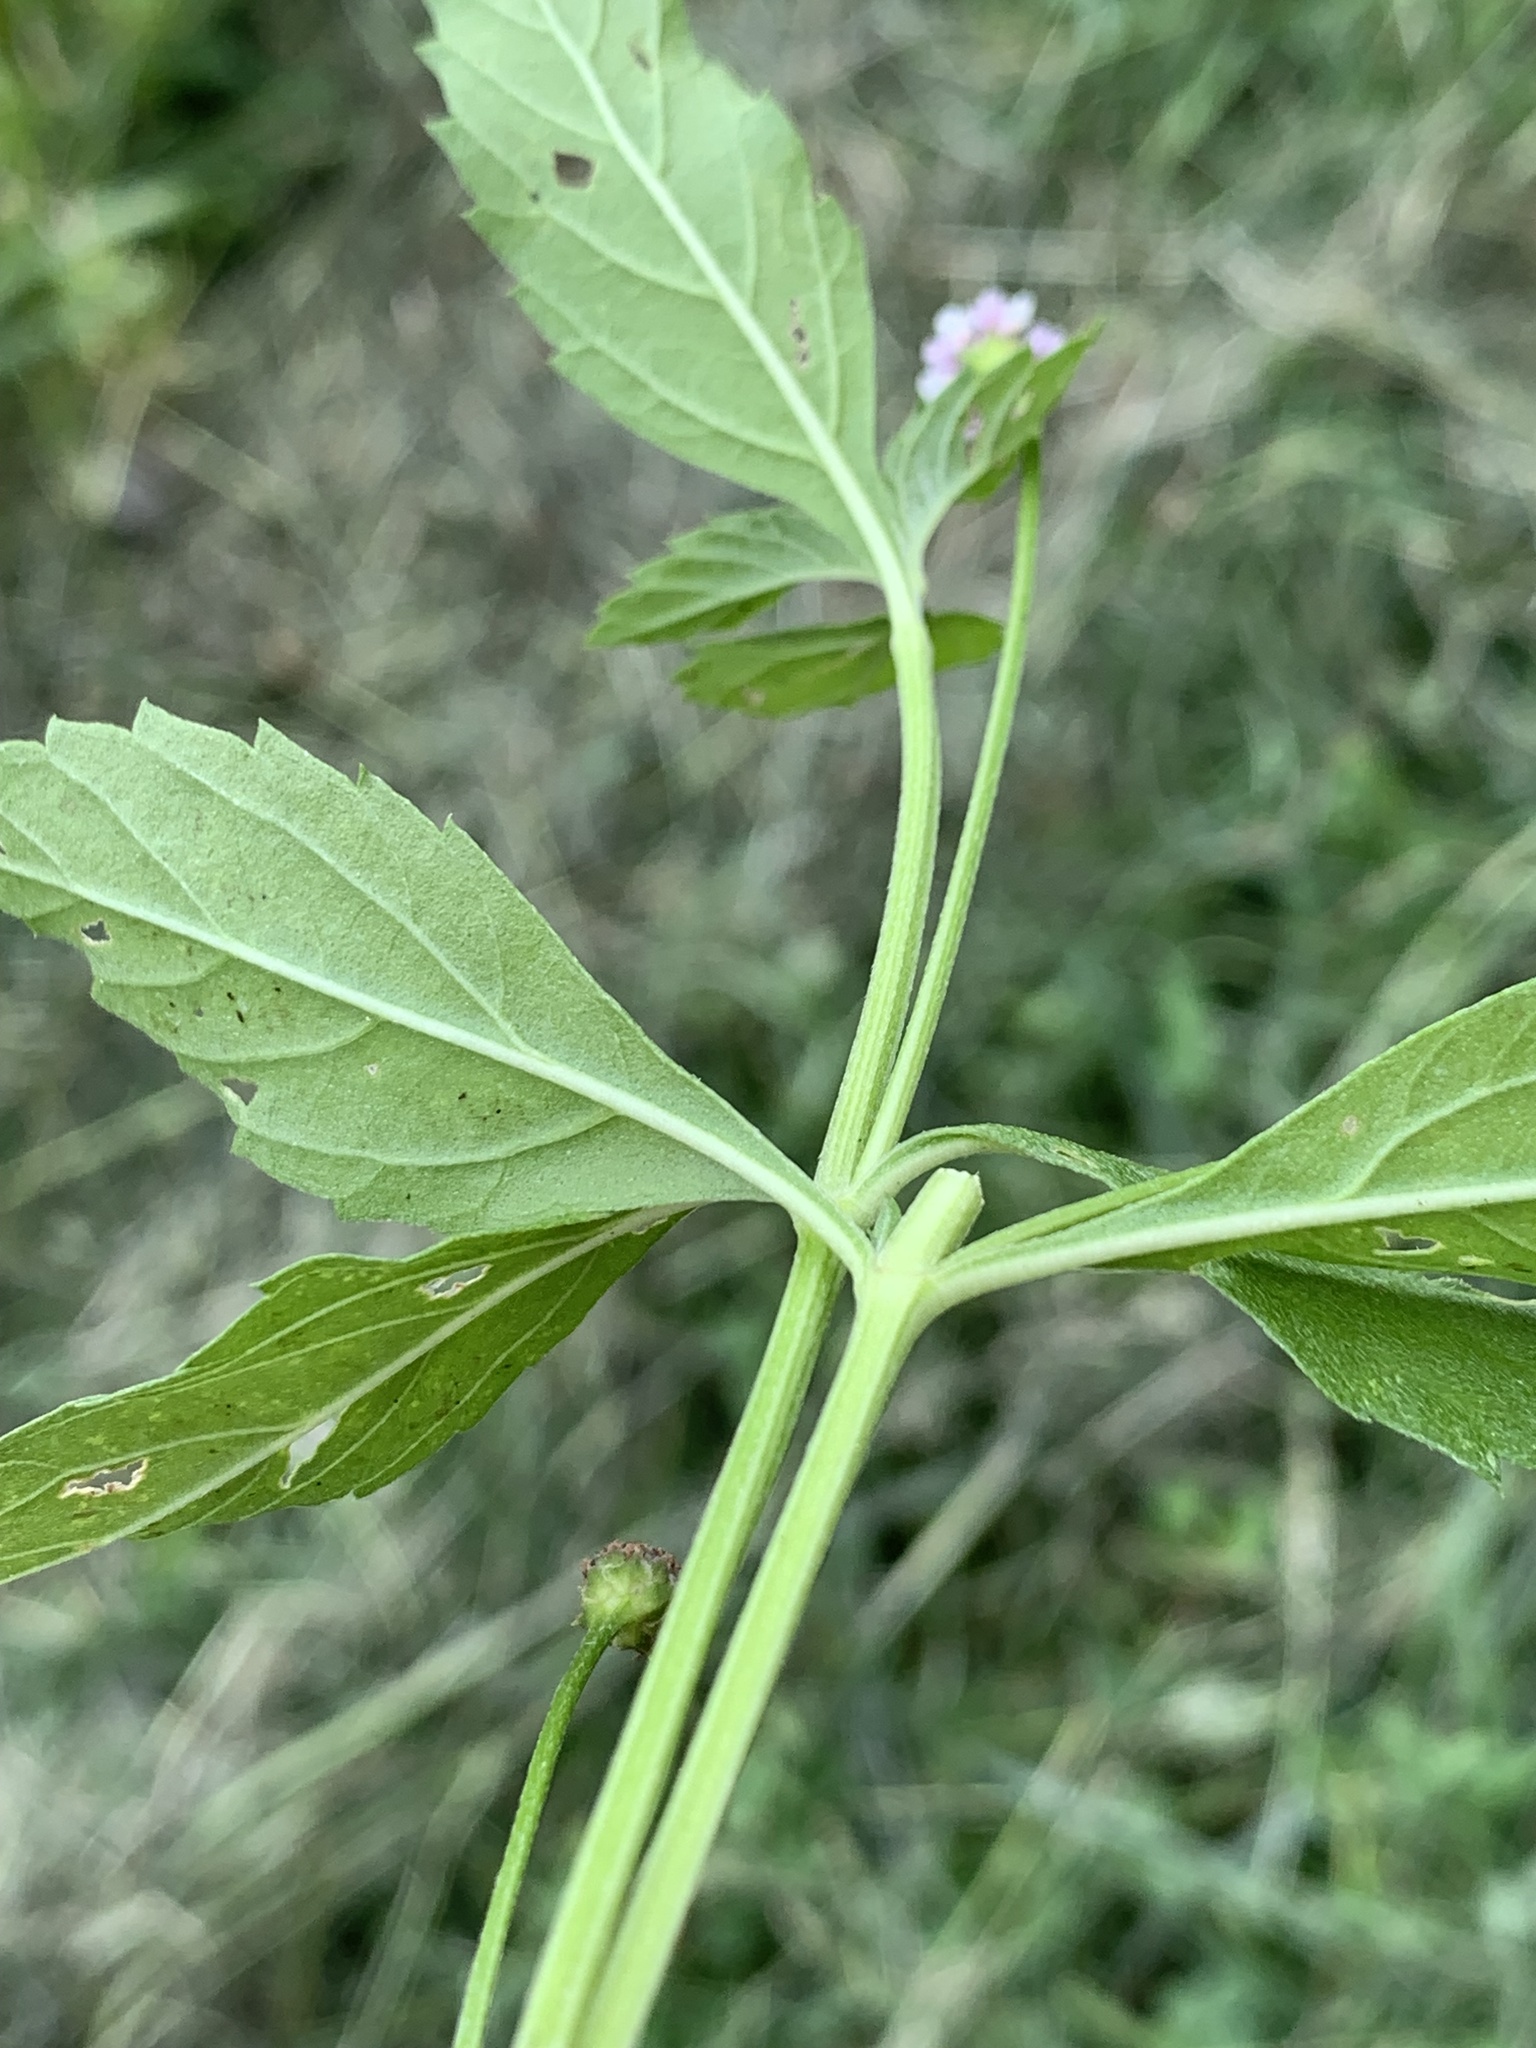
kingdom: Plantae
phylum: Tracheophyta
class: Magnoliopsida
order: Lamiales
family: Verbenaceae
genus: Phyla
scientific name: Phyla lanceolata
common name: Northern fogfruit
